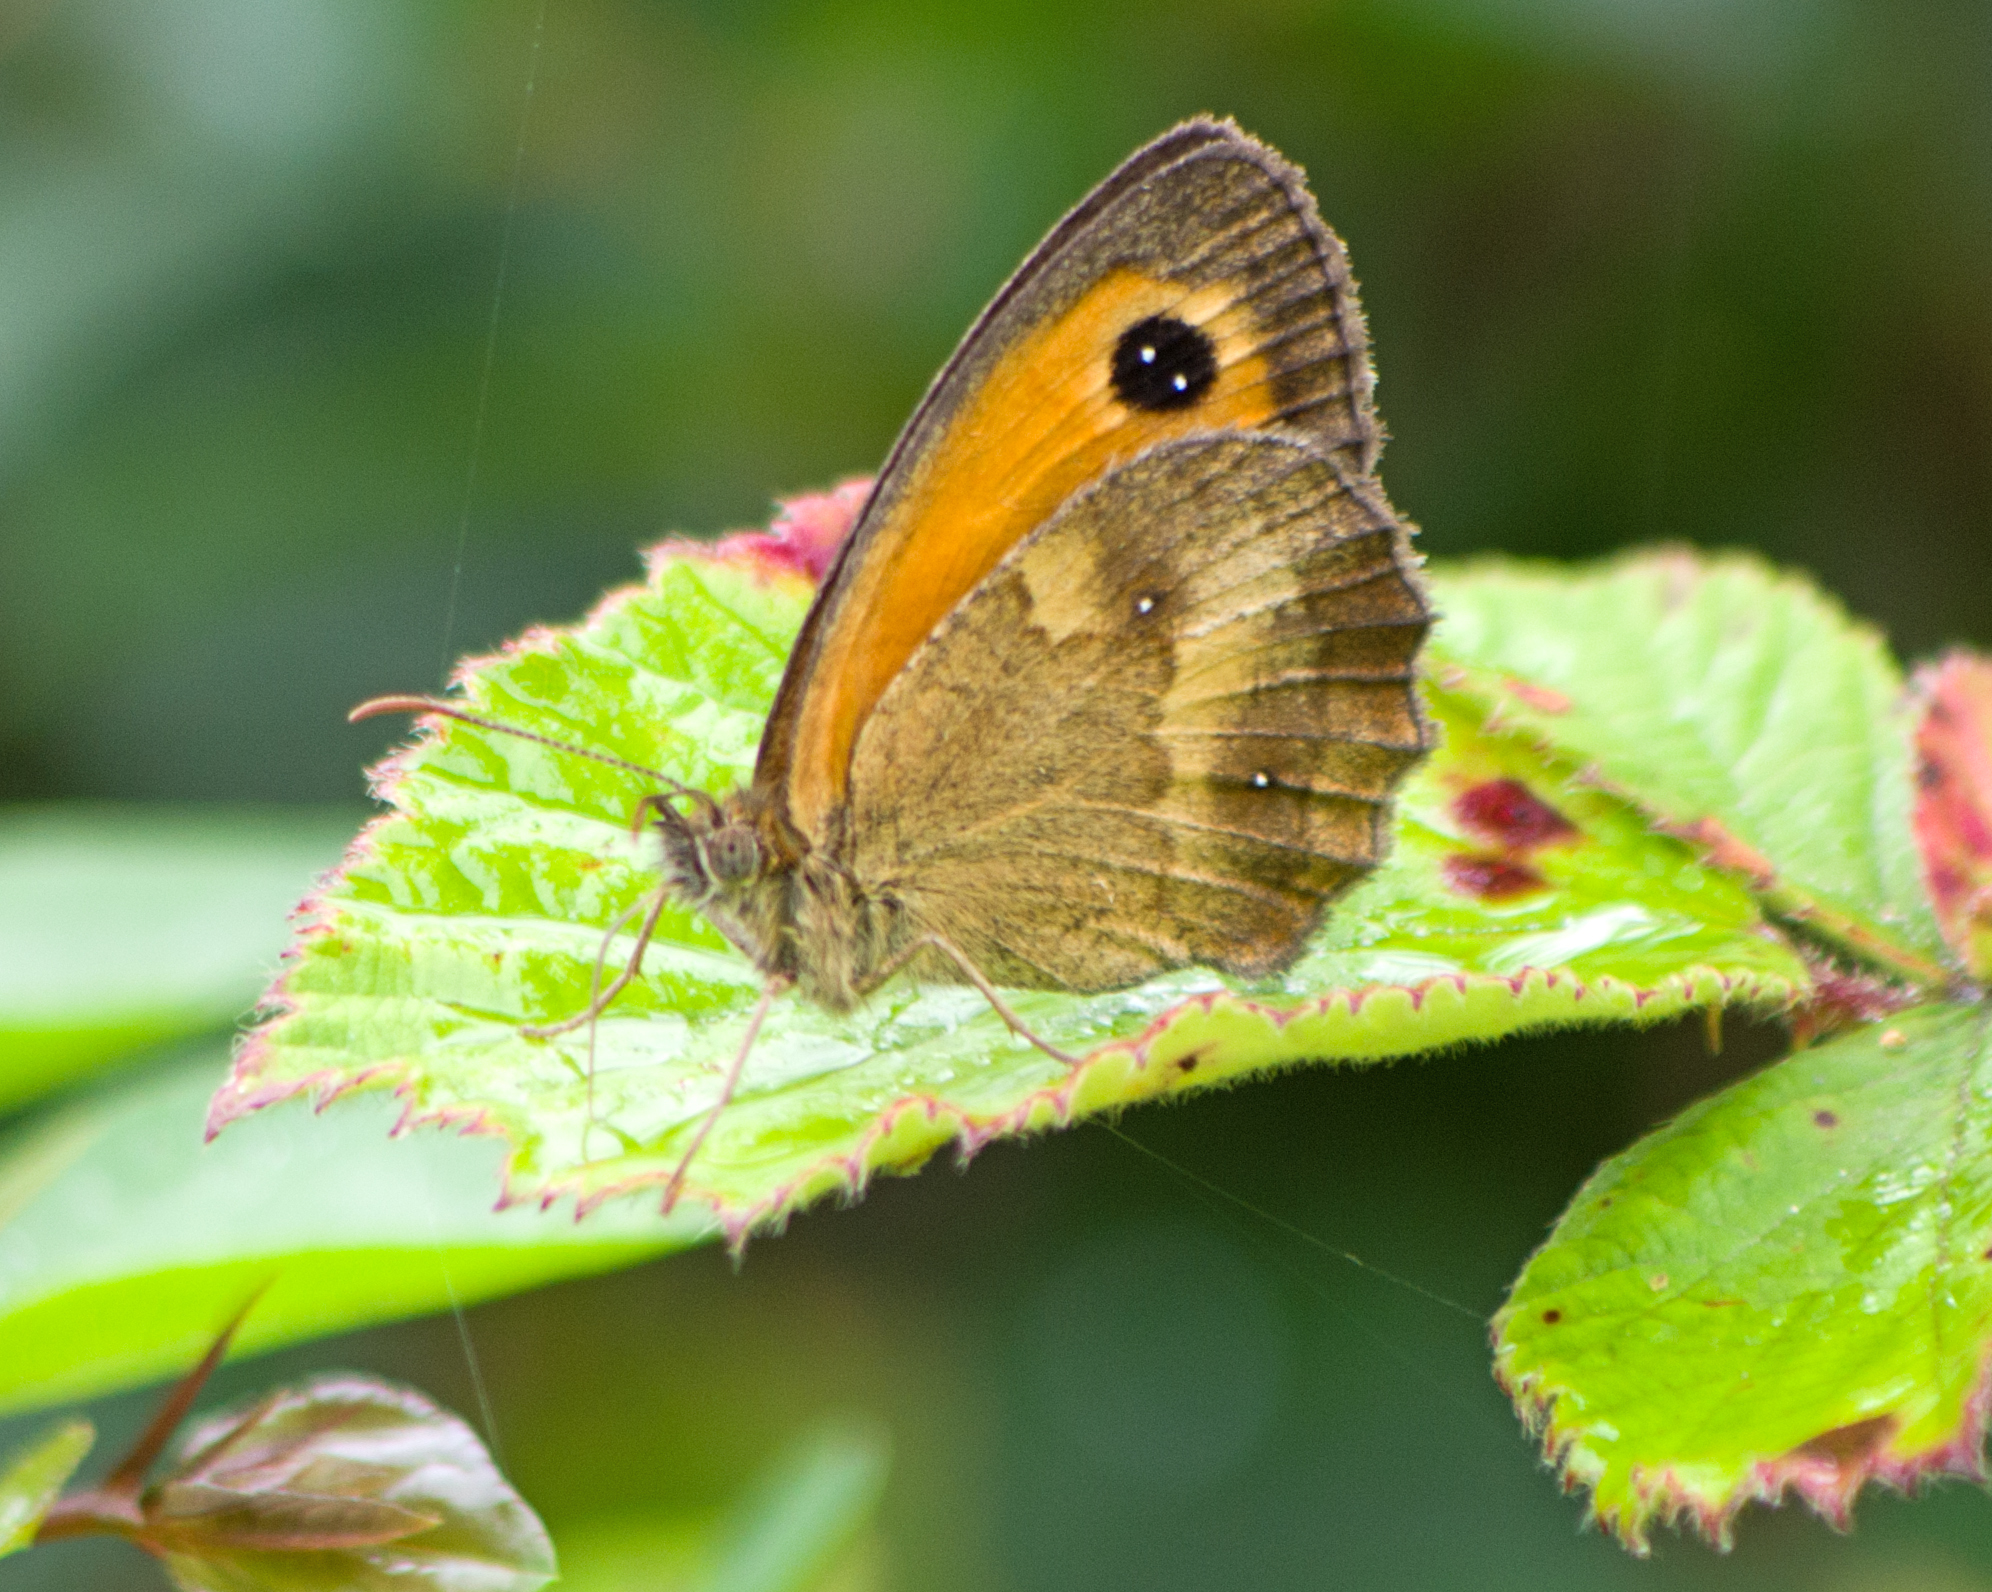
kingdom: Animalia
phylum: Arthropoda
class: Insecta
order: Lepidoptera
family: Nymphalidae
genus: Pyronia
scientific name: Pyronia tithonus
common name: Gatekeeper
